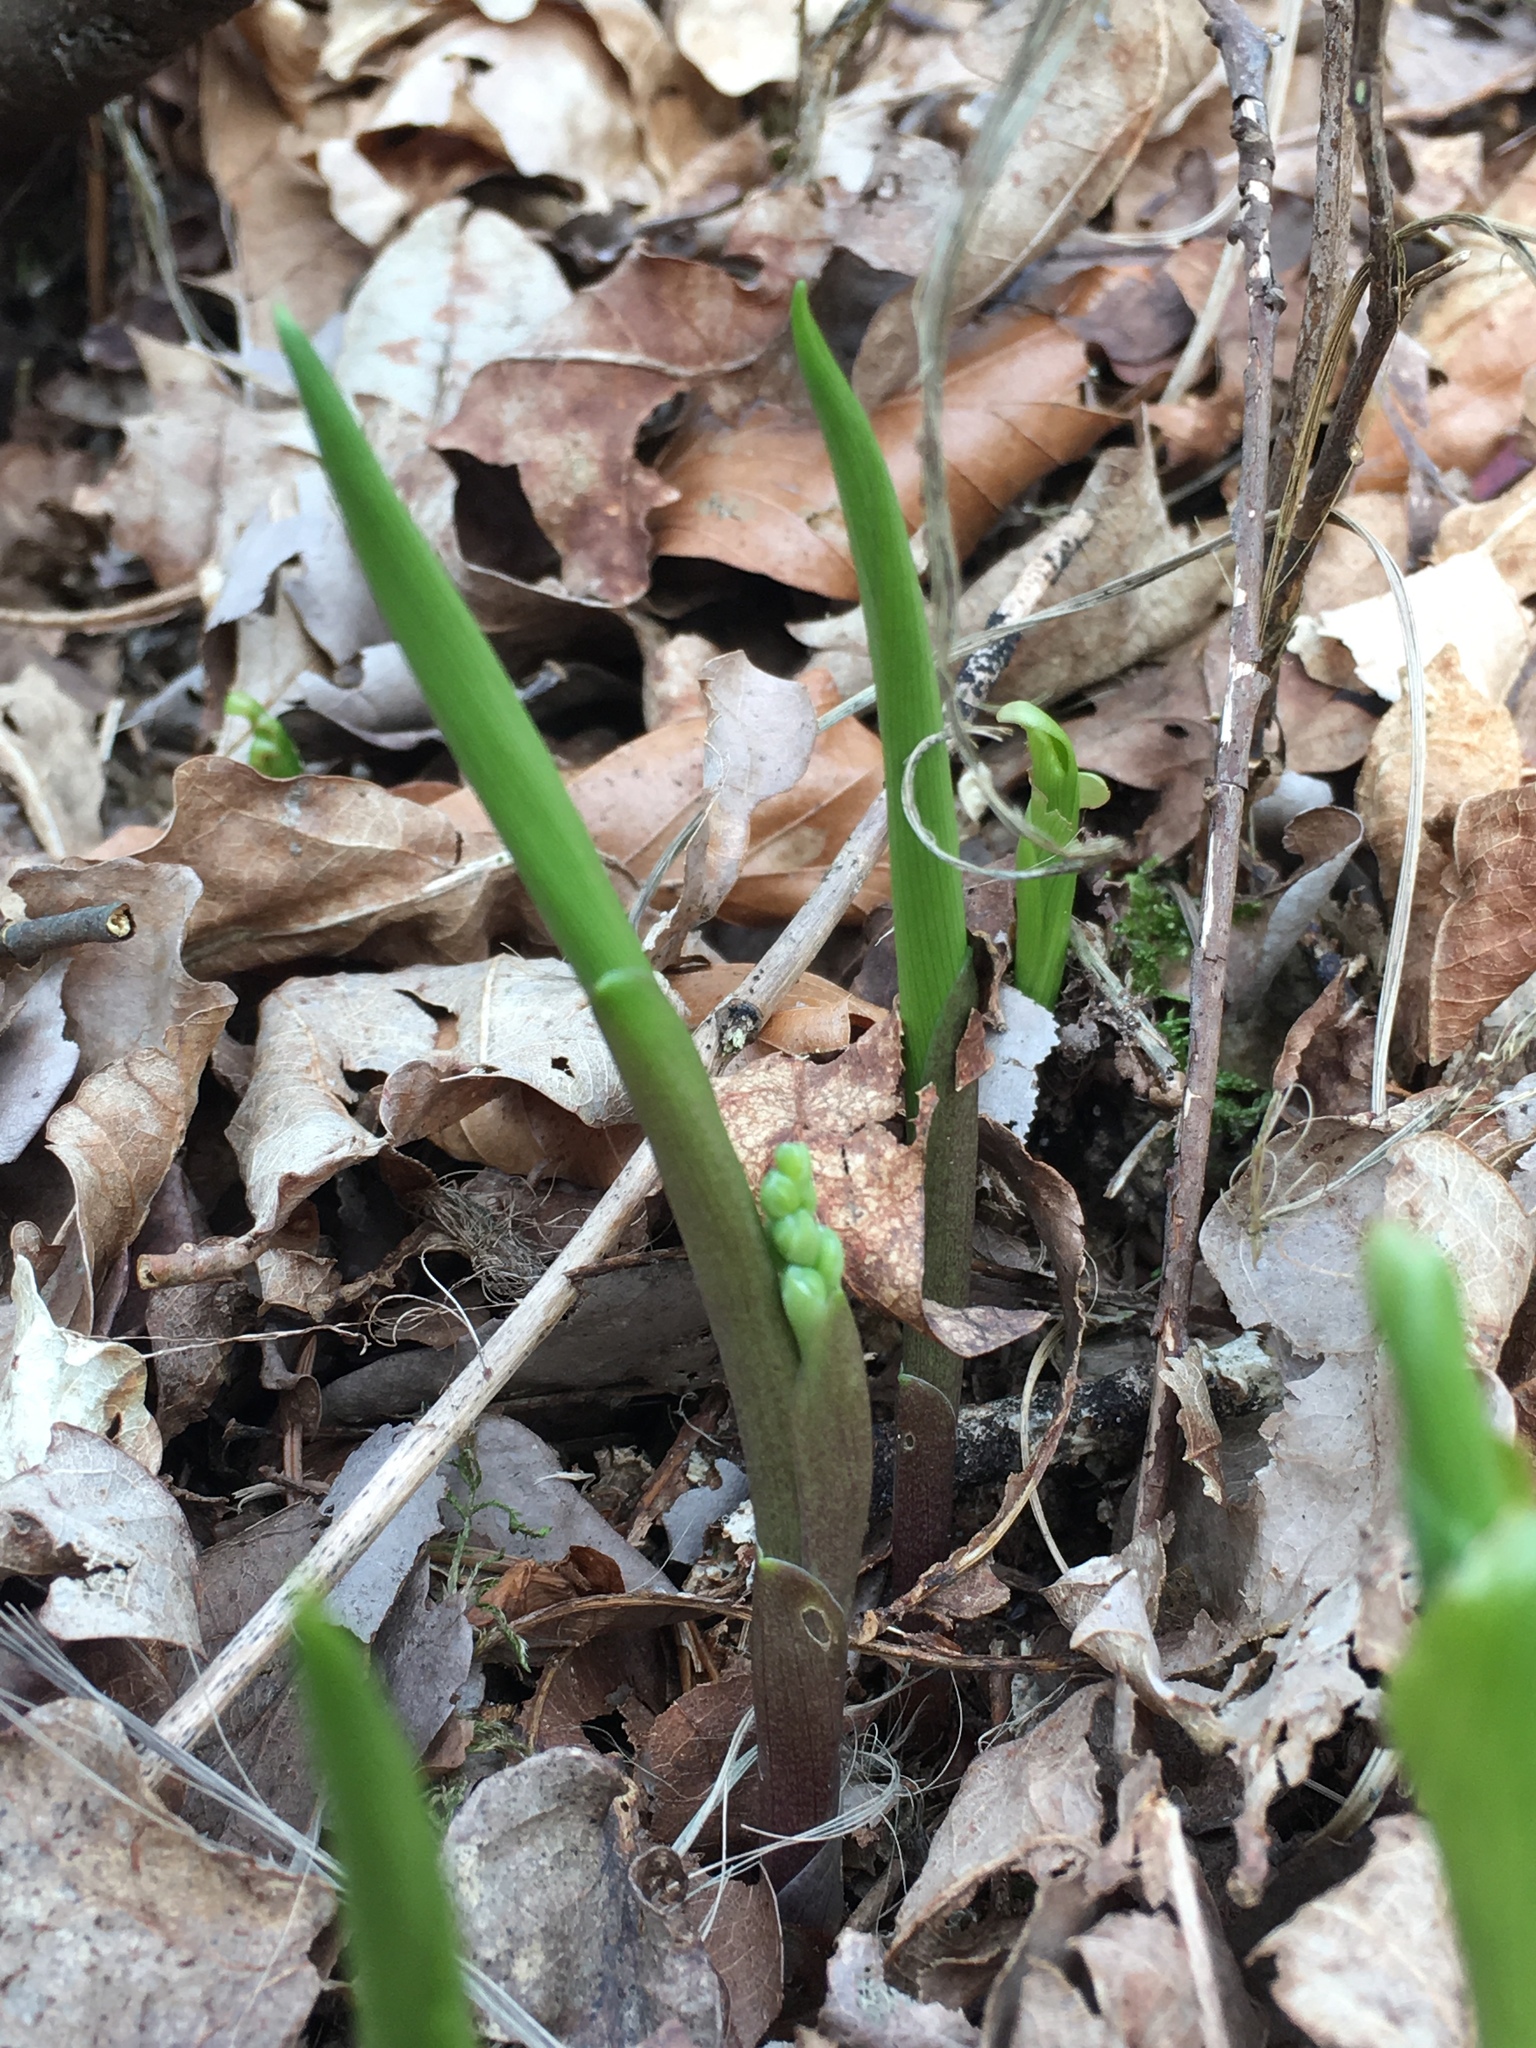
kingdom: Plantae
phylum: Tracheophyta
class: Liliopsida
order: Asparagales
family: Asparagaceae
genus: Convallaria
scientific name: Convallaria majalis
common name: Lily-of-the-valley
